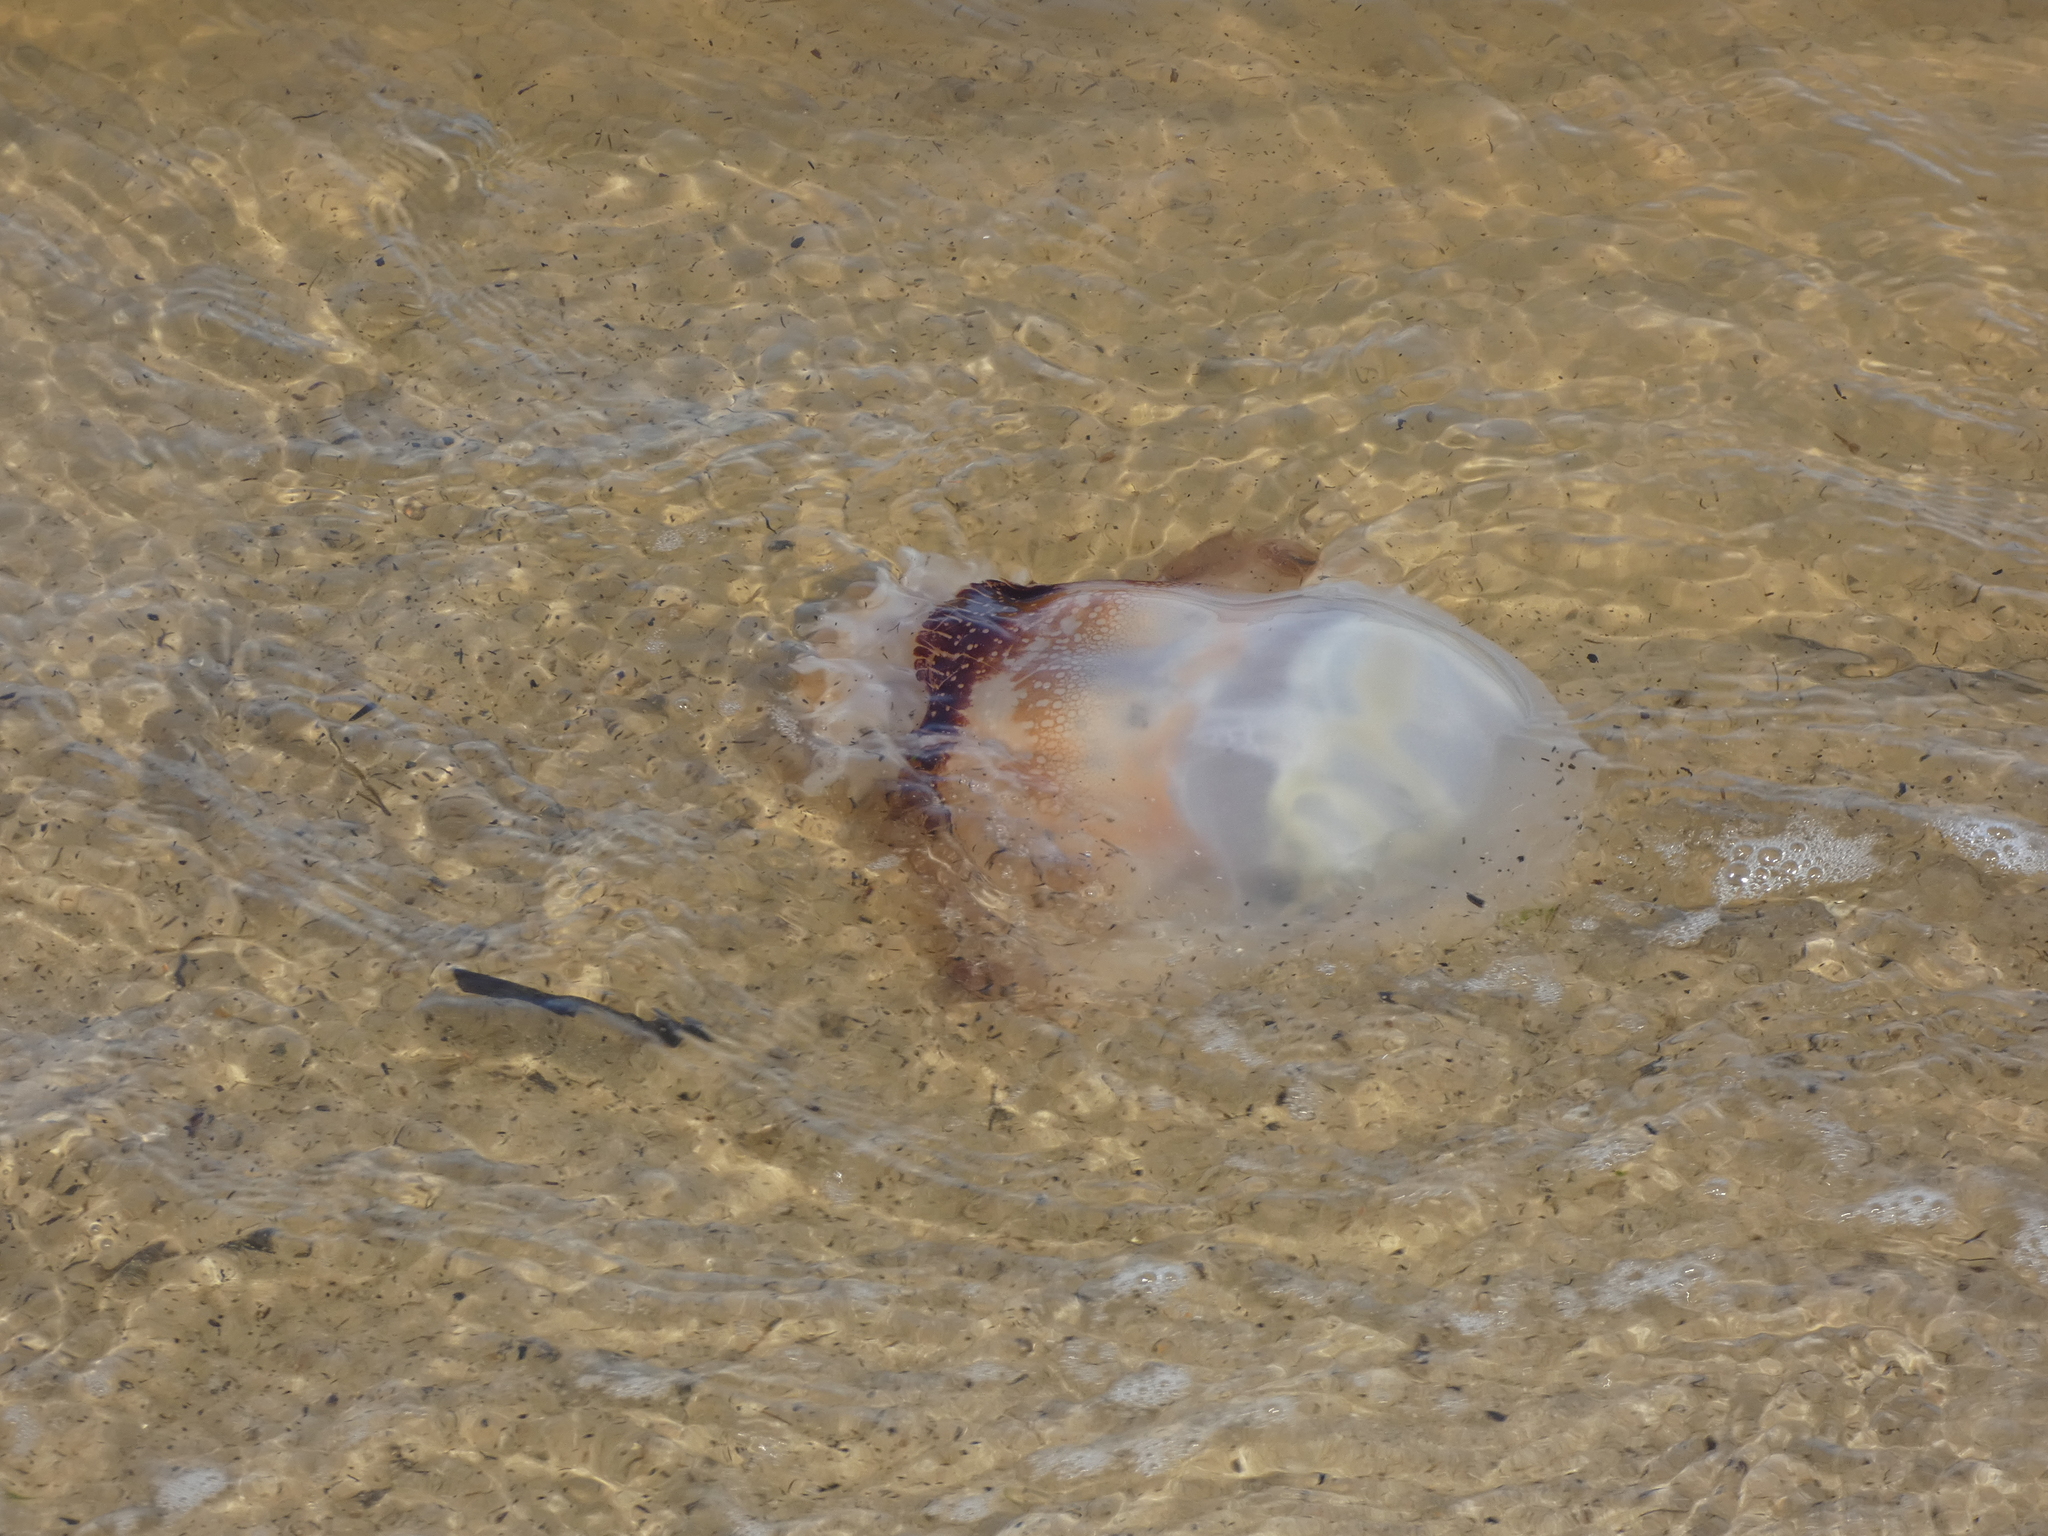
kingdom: Animalia
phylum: Cnidaria
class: Scyphozoa
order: Rhizostomeae
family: Stomolophidae
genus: Stomolophus
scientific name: Stomolophus meleagris
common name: Cabbagehead
